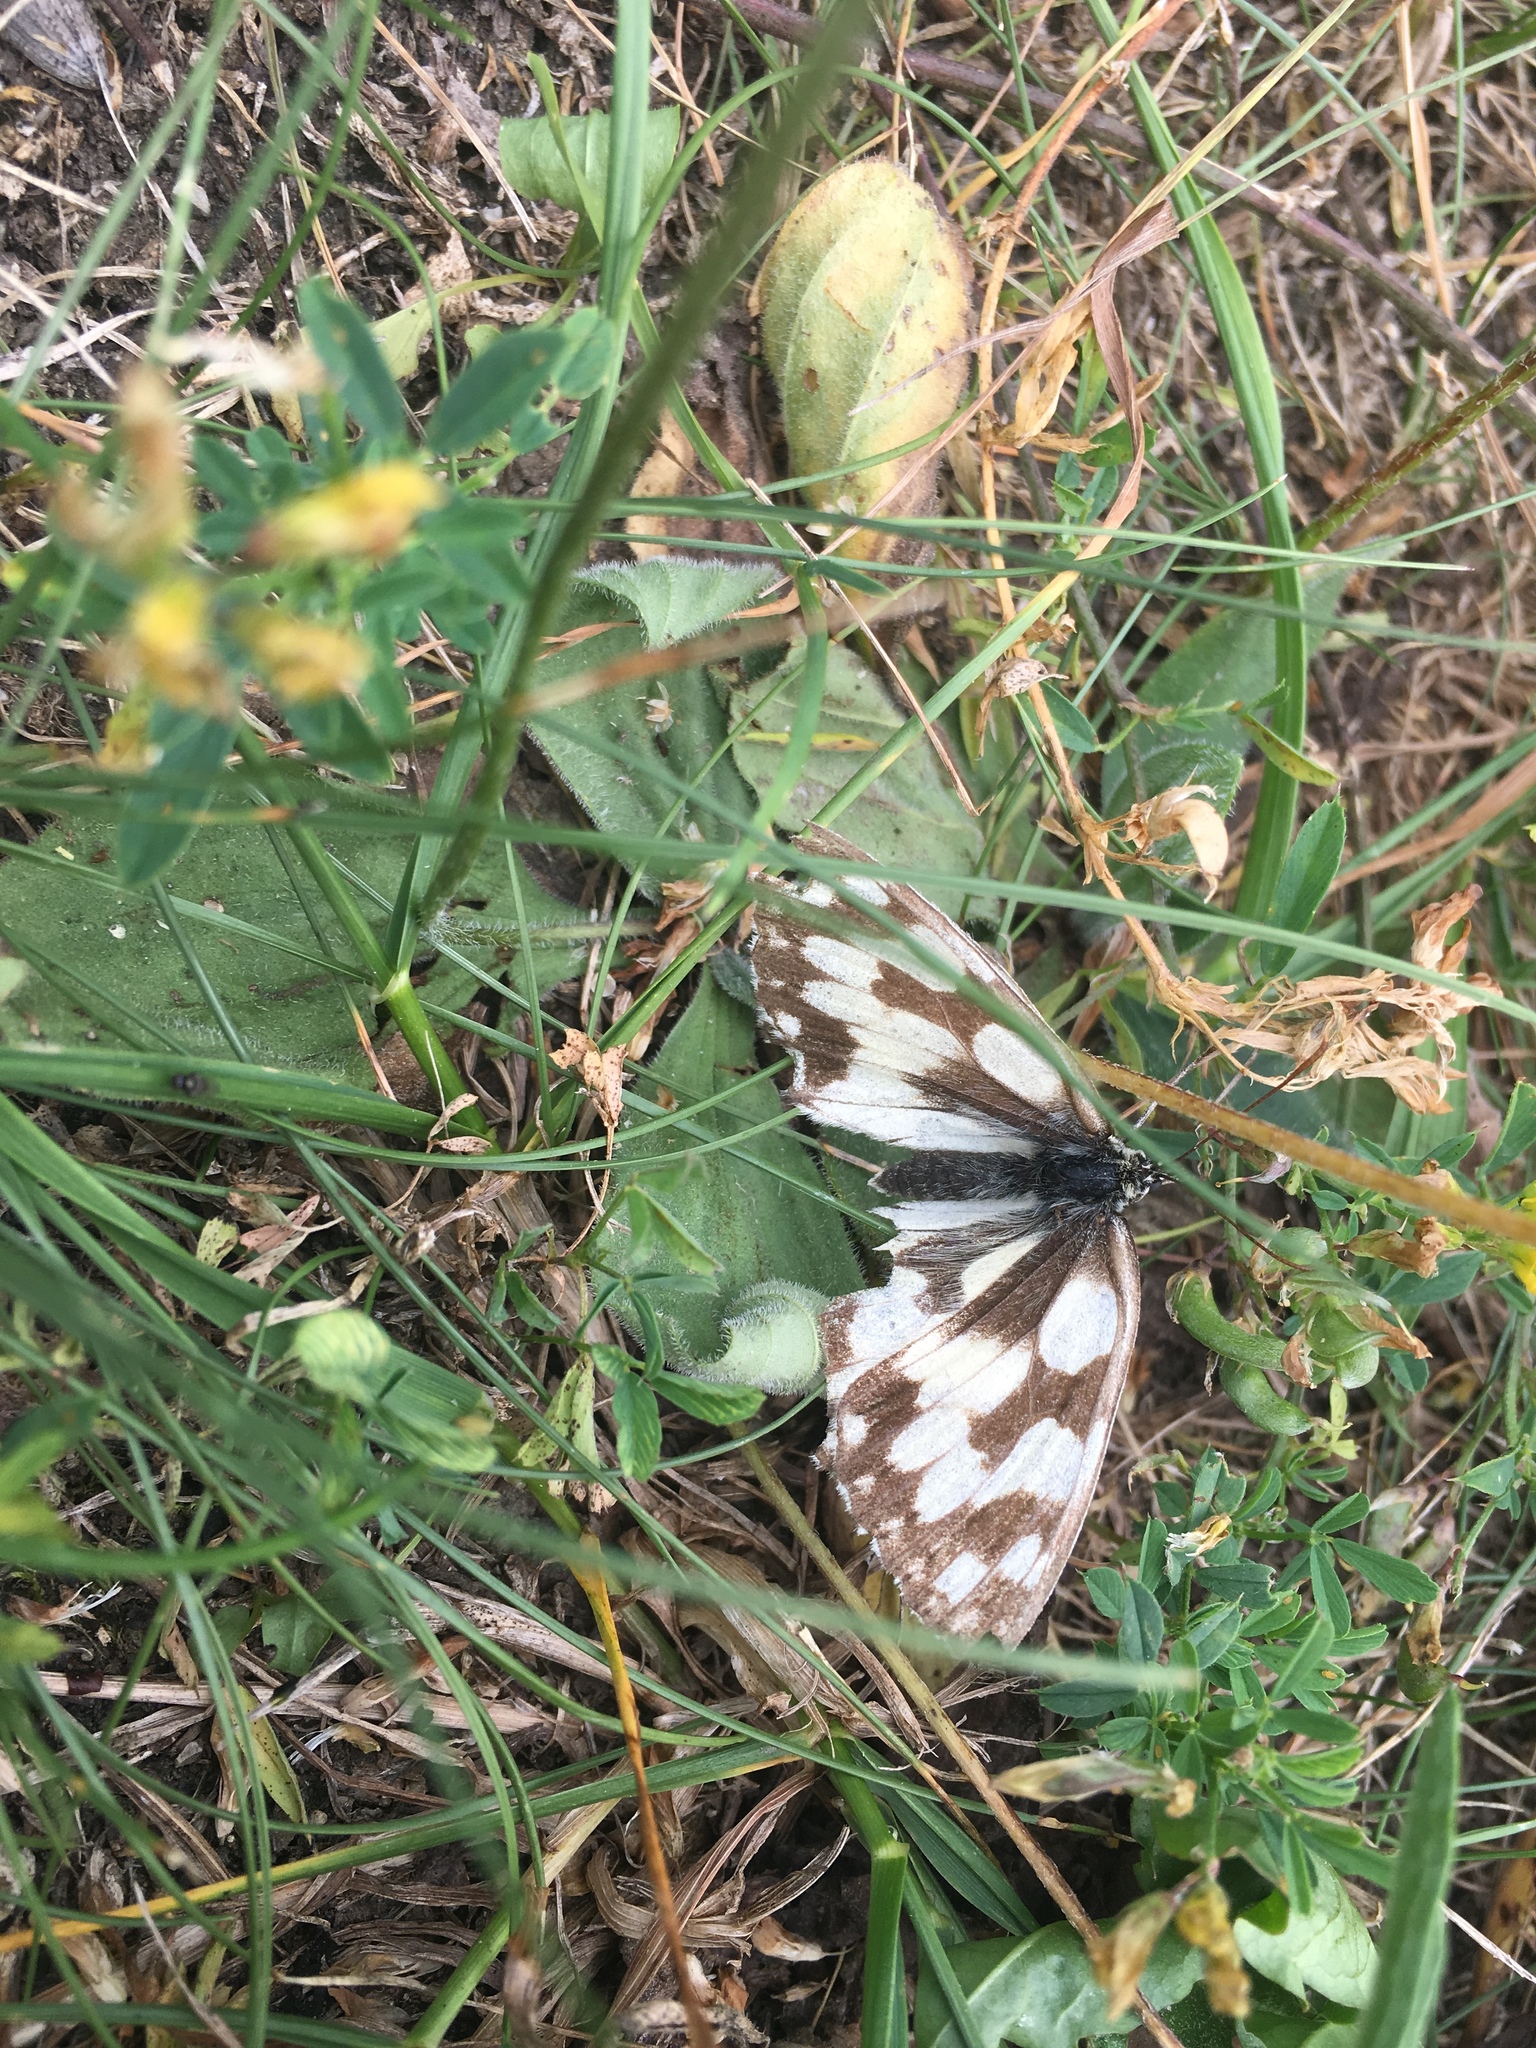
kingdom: Animalia
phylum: Arthropoda
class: Insecta
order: Lepidoptera
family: Nymphalidae
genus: Melanargia
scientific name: Melanargia galathea
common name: Marbled white
